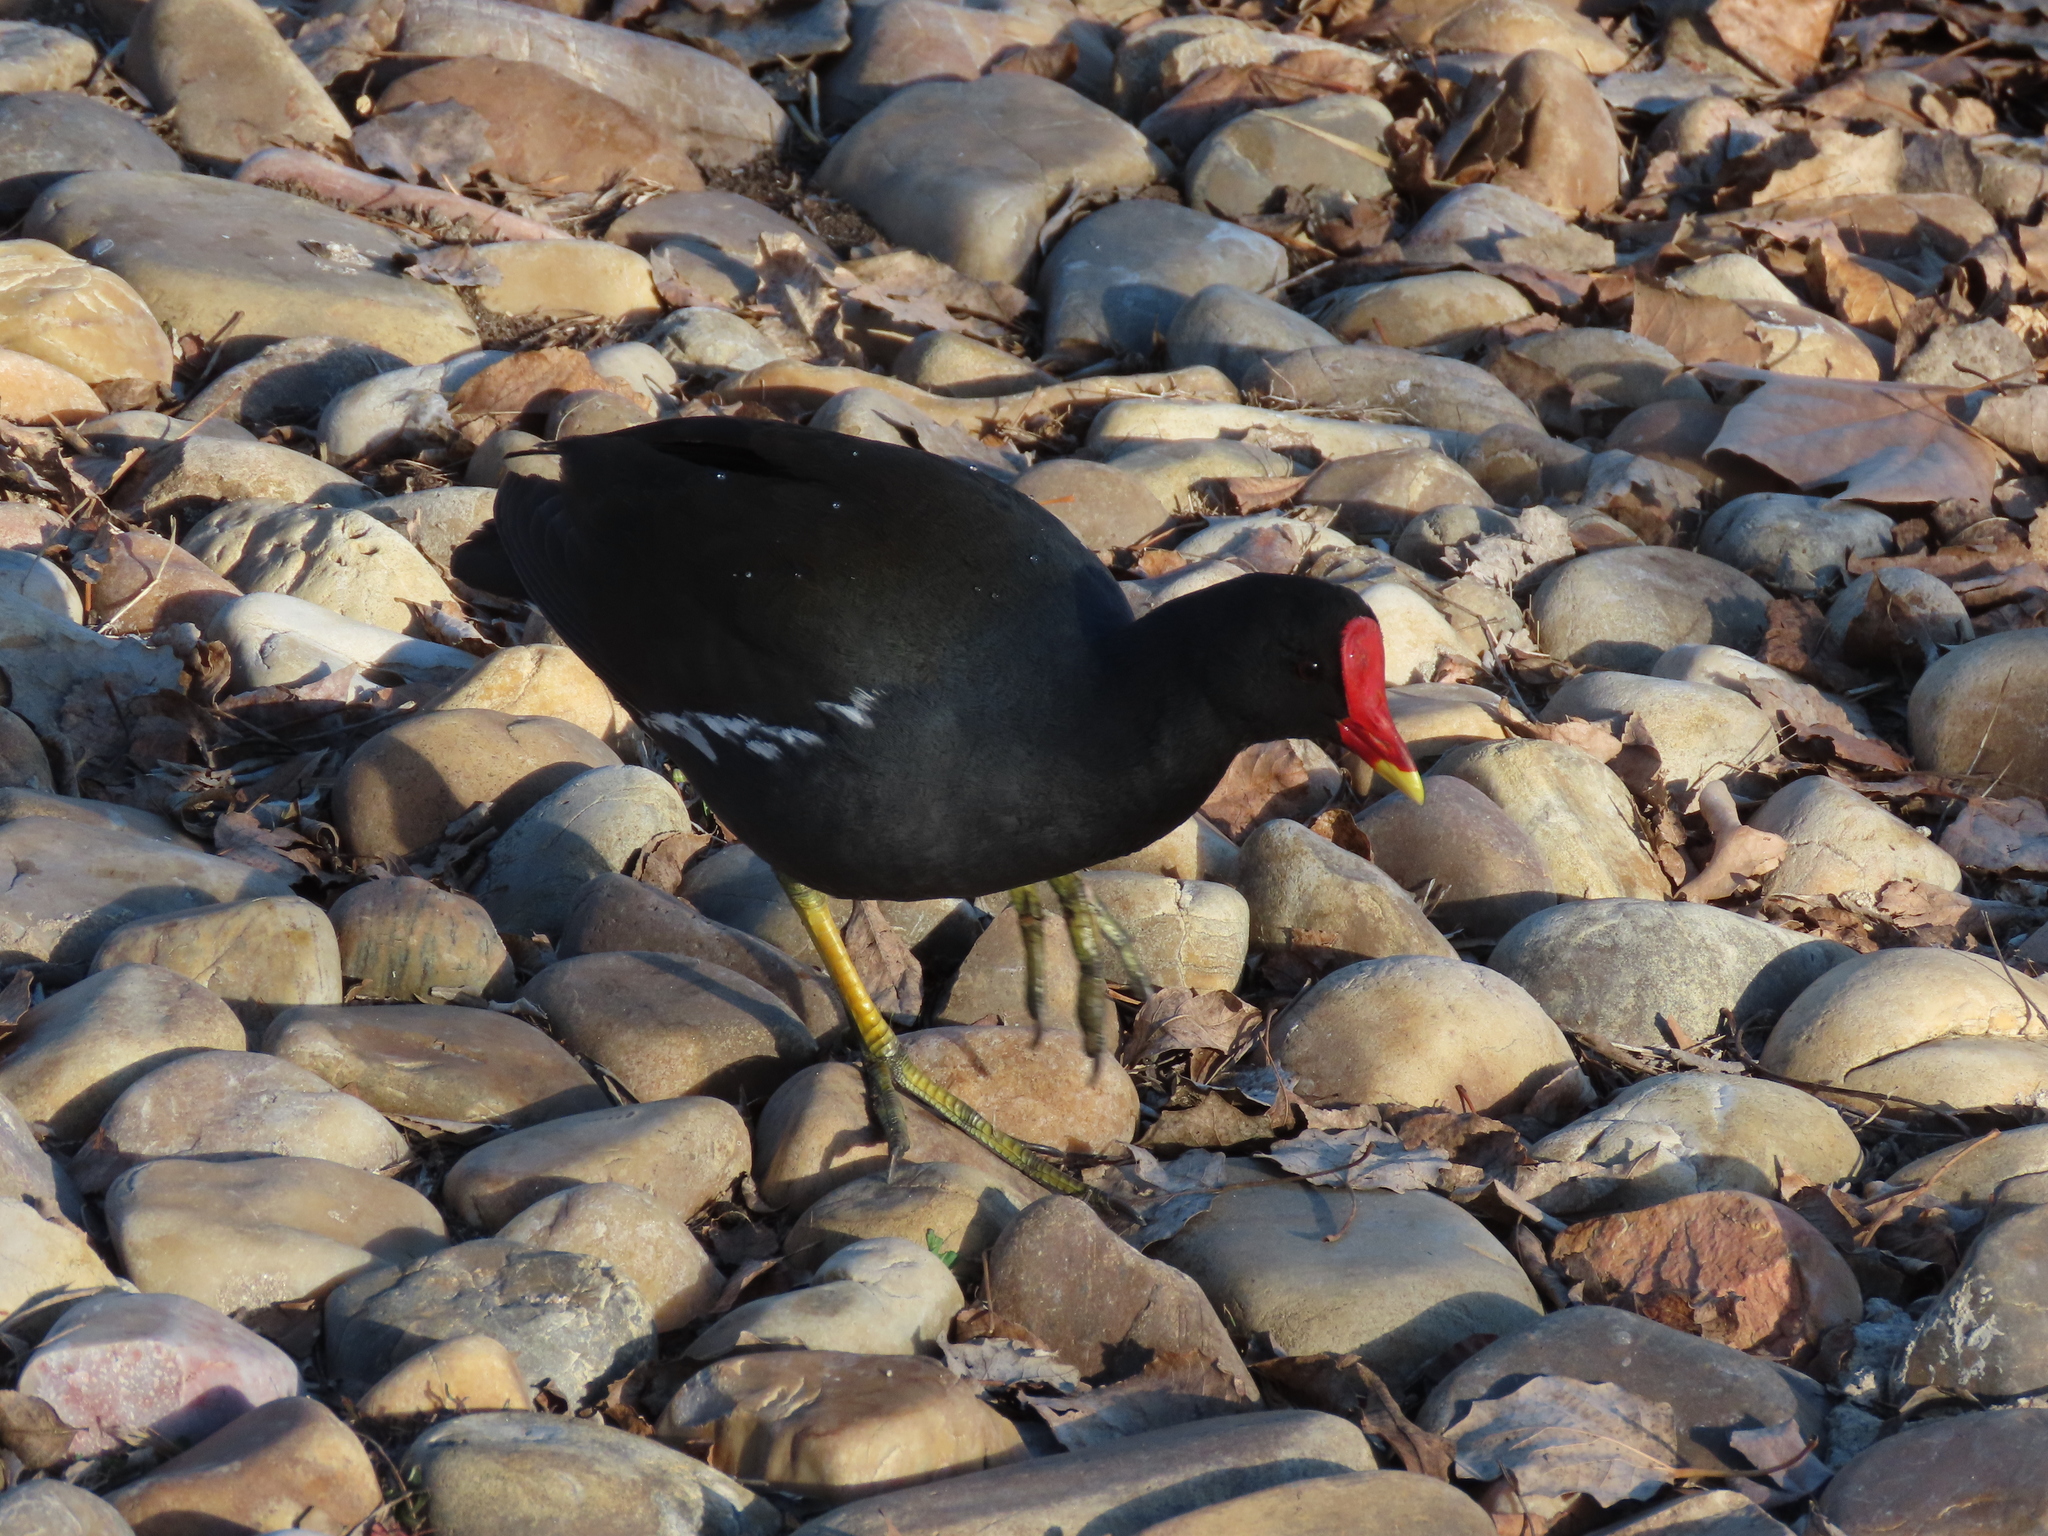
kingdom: Animalia
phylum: Chordata
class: Aves
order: Gruiformes
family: Rallidae
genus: Gallinula
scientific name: Gallinula chloropus
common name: Common moorhen
